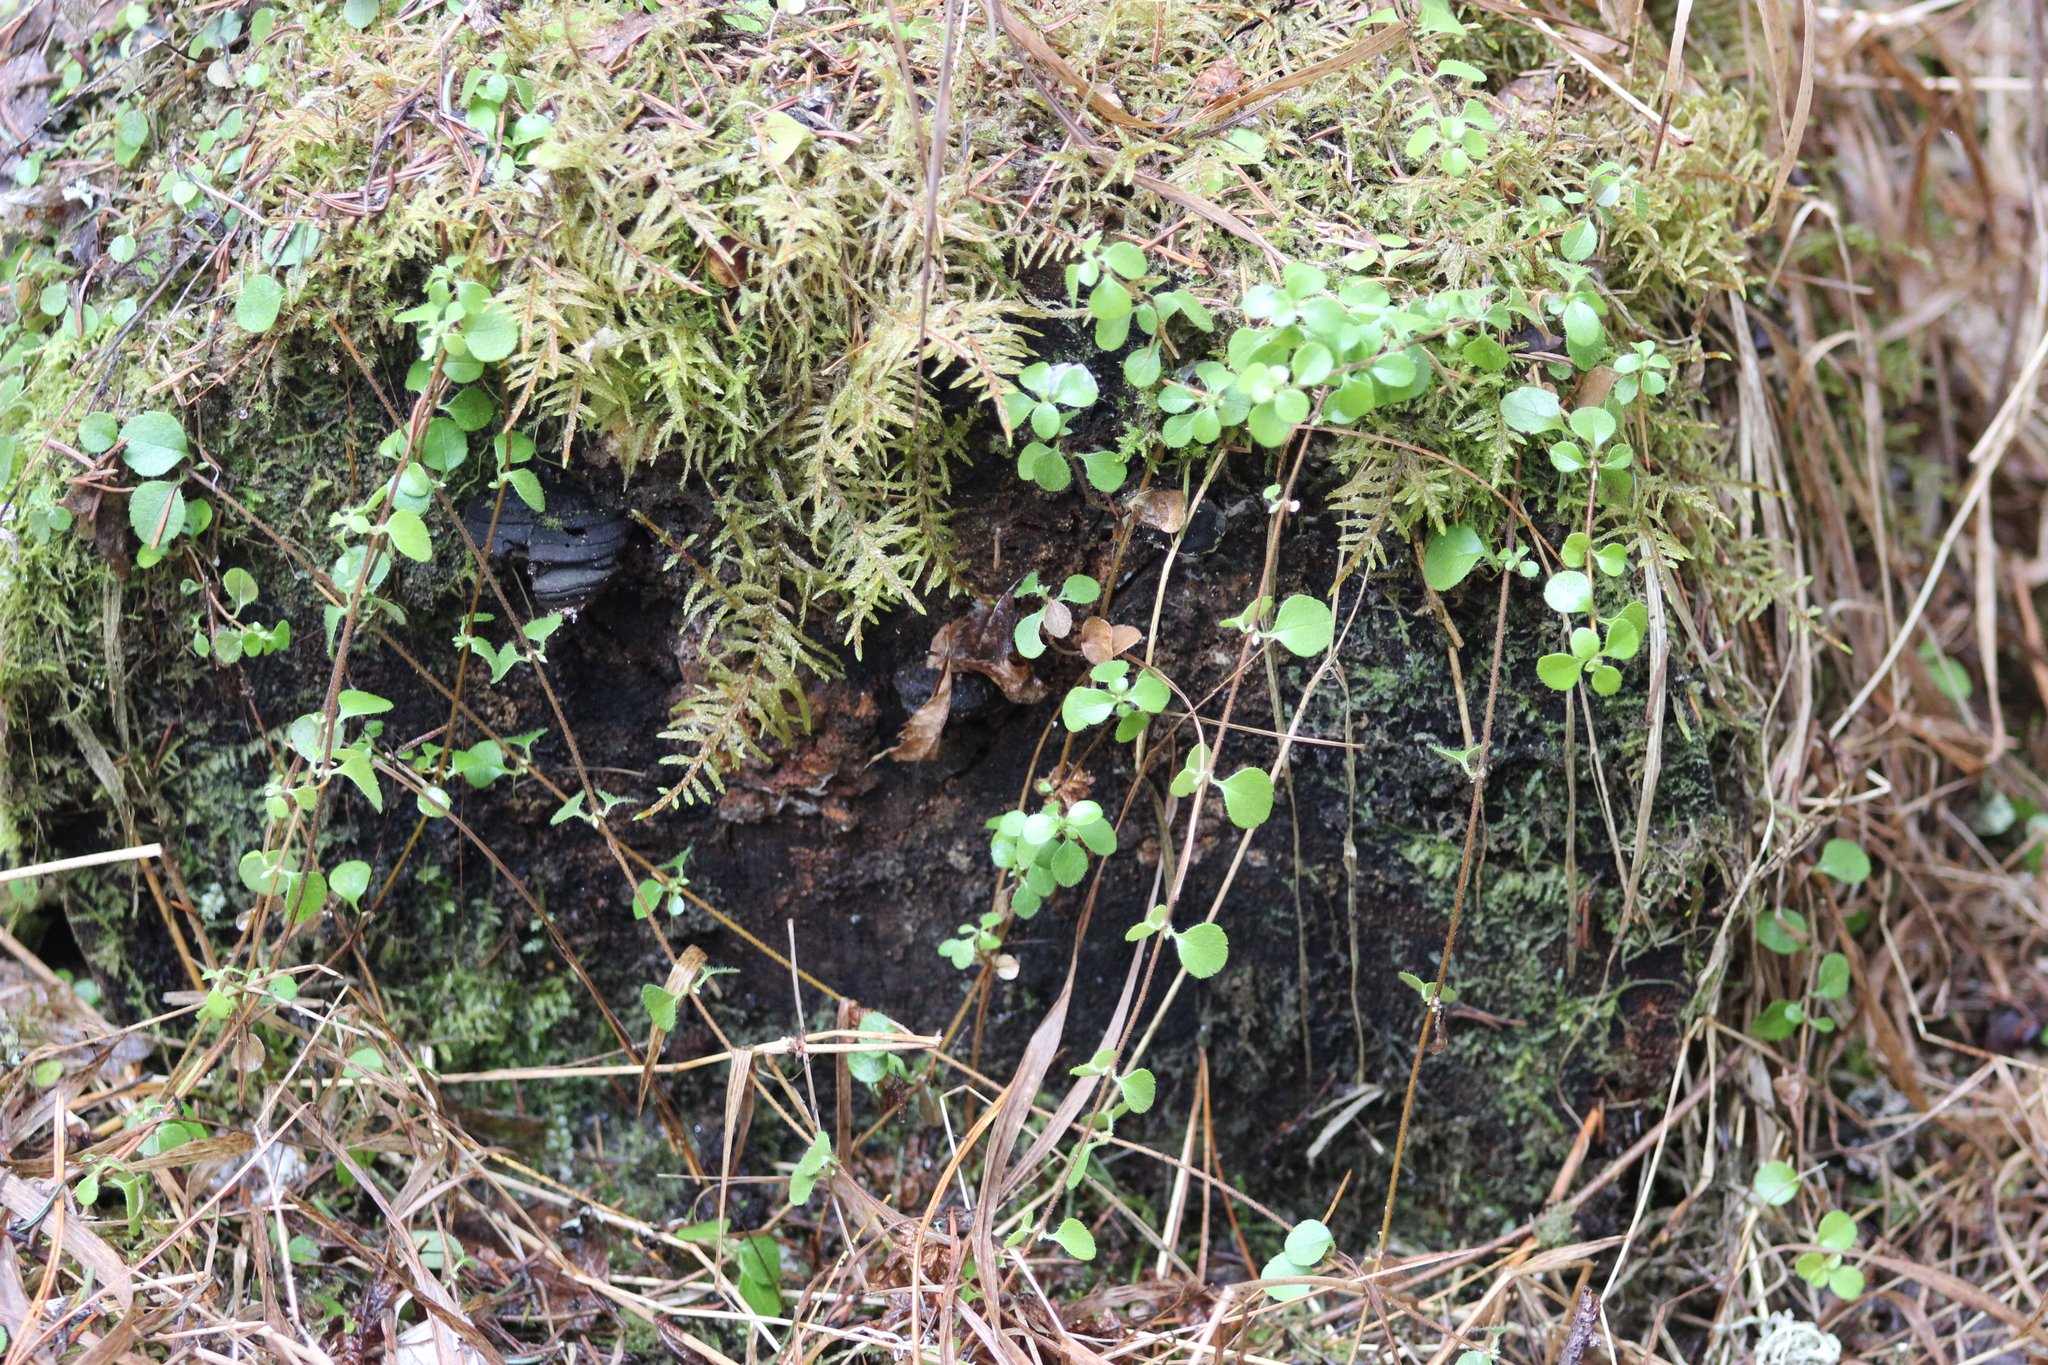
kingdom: Plantae
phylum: Tracheophyta
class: Magnoliopsida
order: Dipsacales
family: Caprifoliaceae
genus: Linnaea
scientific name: Linnaea borealis
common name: Twinflower
